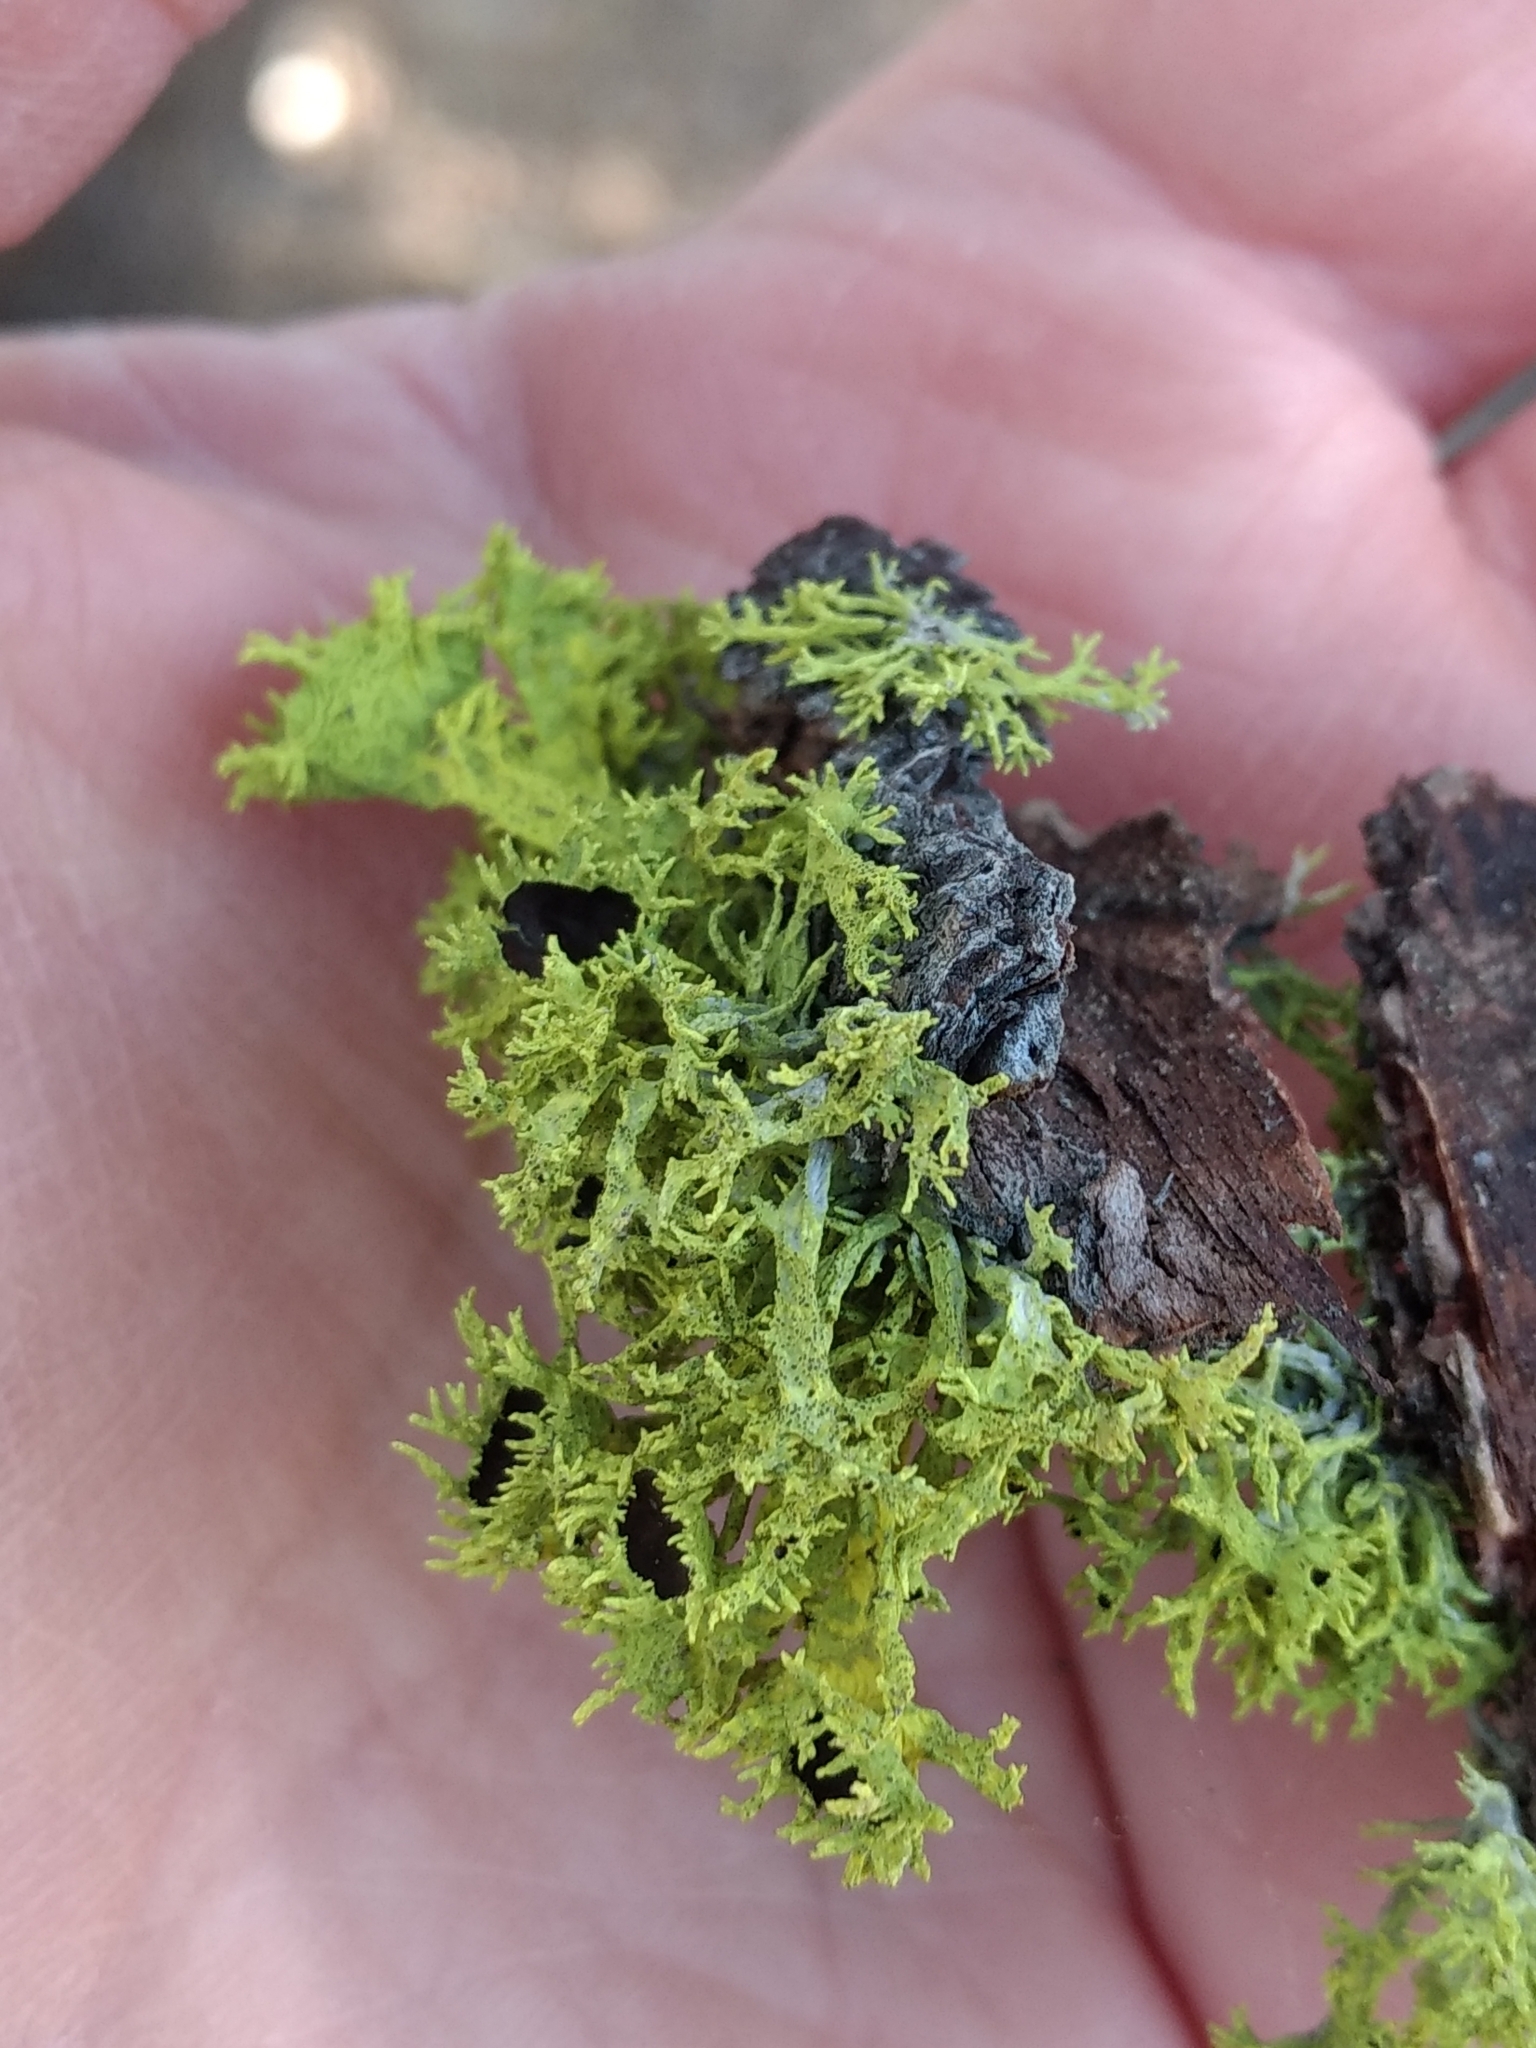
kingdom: Fungi
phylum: Ascomycota
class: Lecanoromycetes
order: Lecanorales
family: Parmeliaceae
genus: Letharia
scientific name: Letharia columbiana
